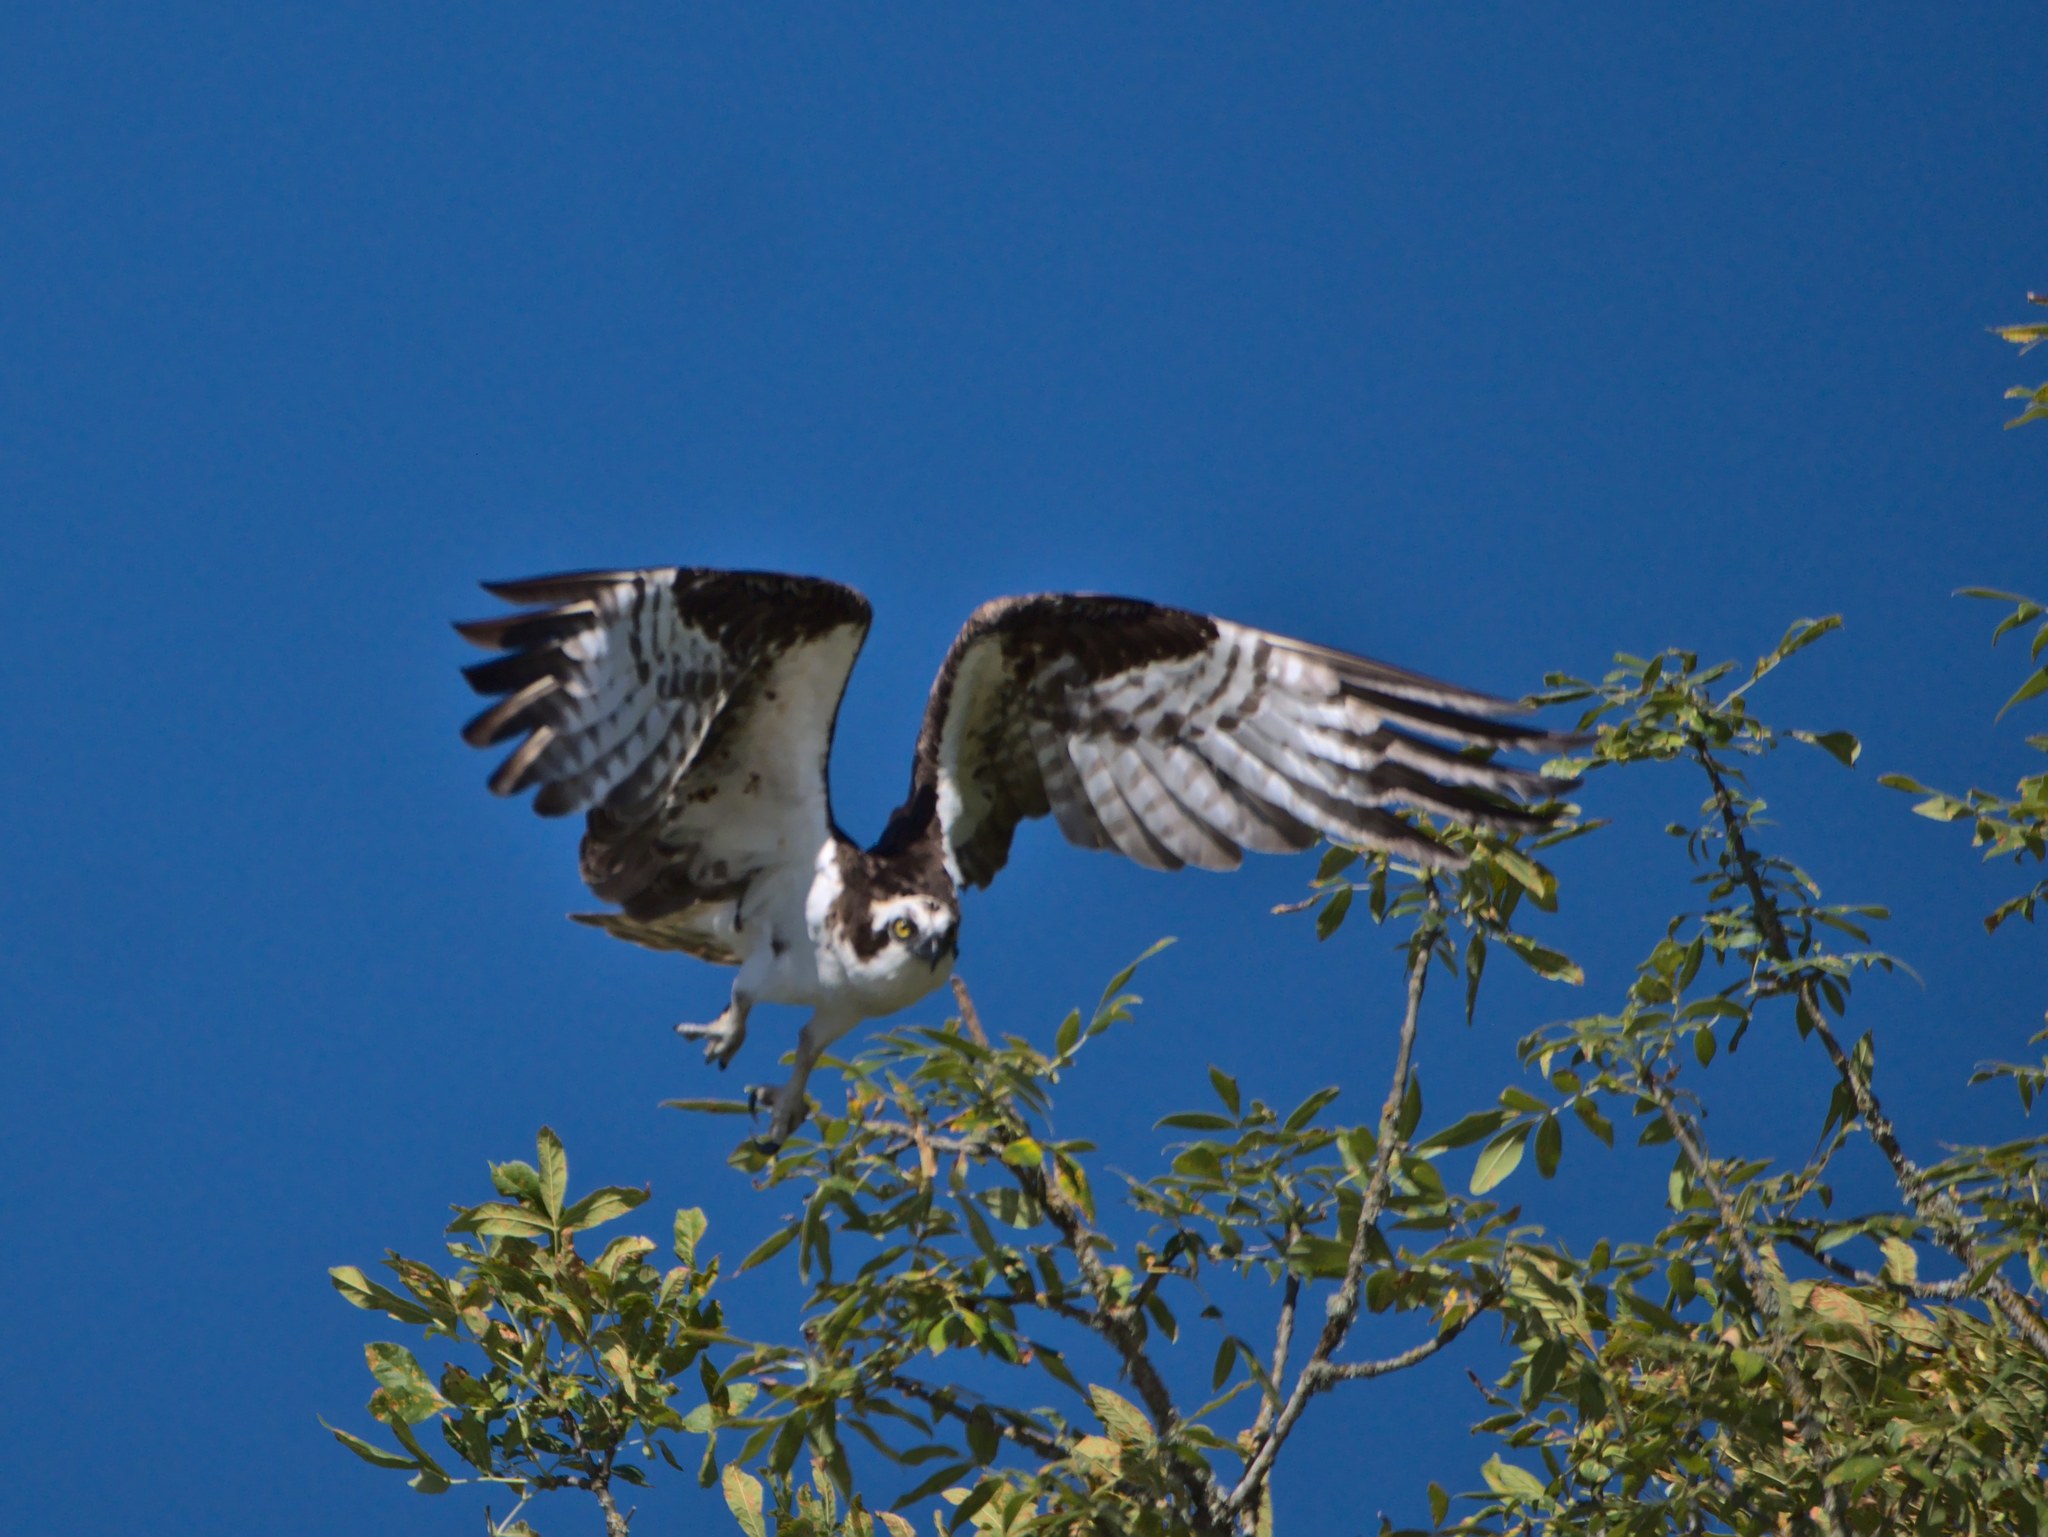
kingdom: Animalia
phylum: Chordata
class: Aves
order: Accipitriformes
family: Pandionidae
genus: Pandion
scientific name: Pandion haliaetus
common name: Osprey
